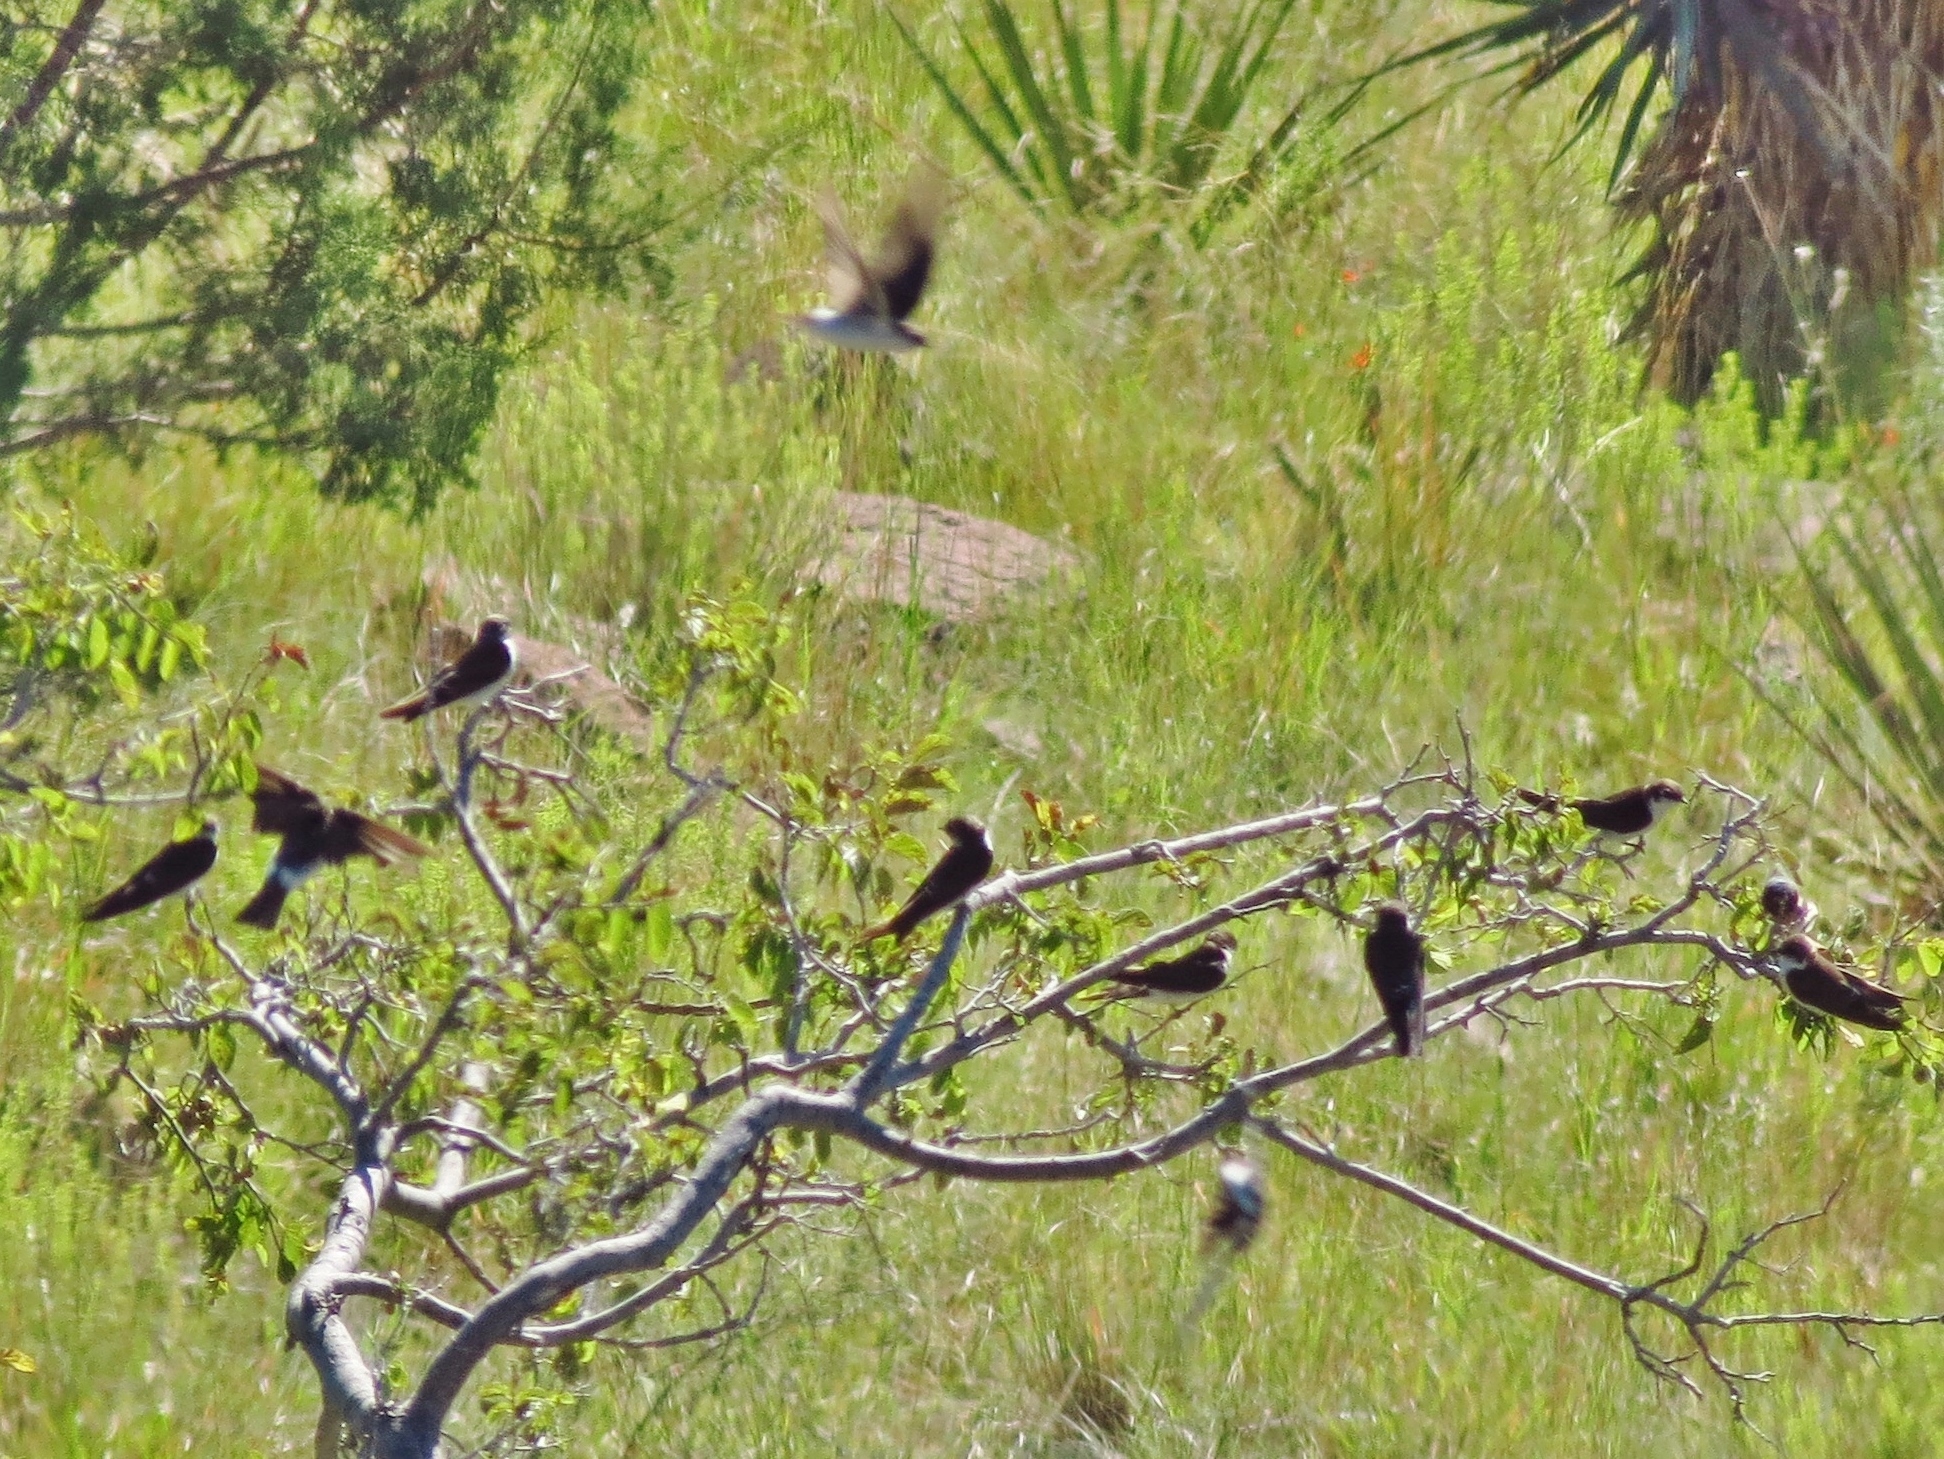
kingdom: Animalia
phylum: Chordata
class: Aves
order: Passeriformes
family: Hirundinidae
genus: Tachycineta
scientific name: Tachycineta thalassina
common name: Violet-green swallow
